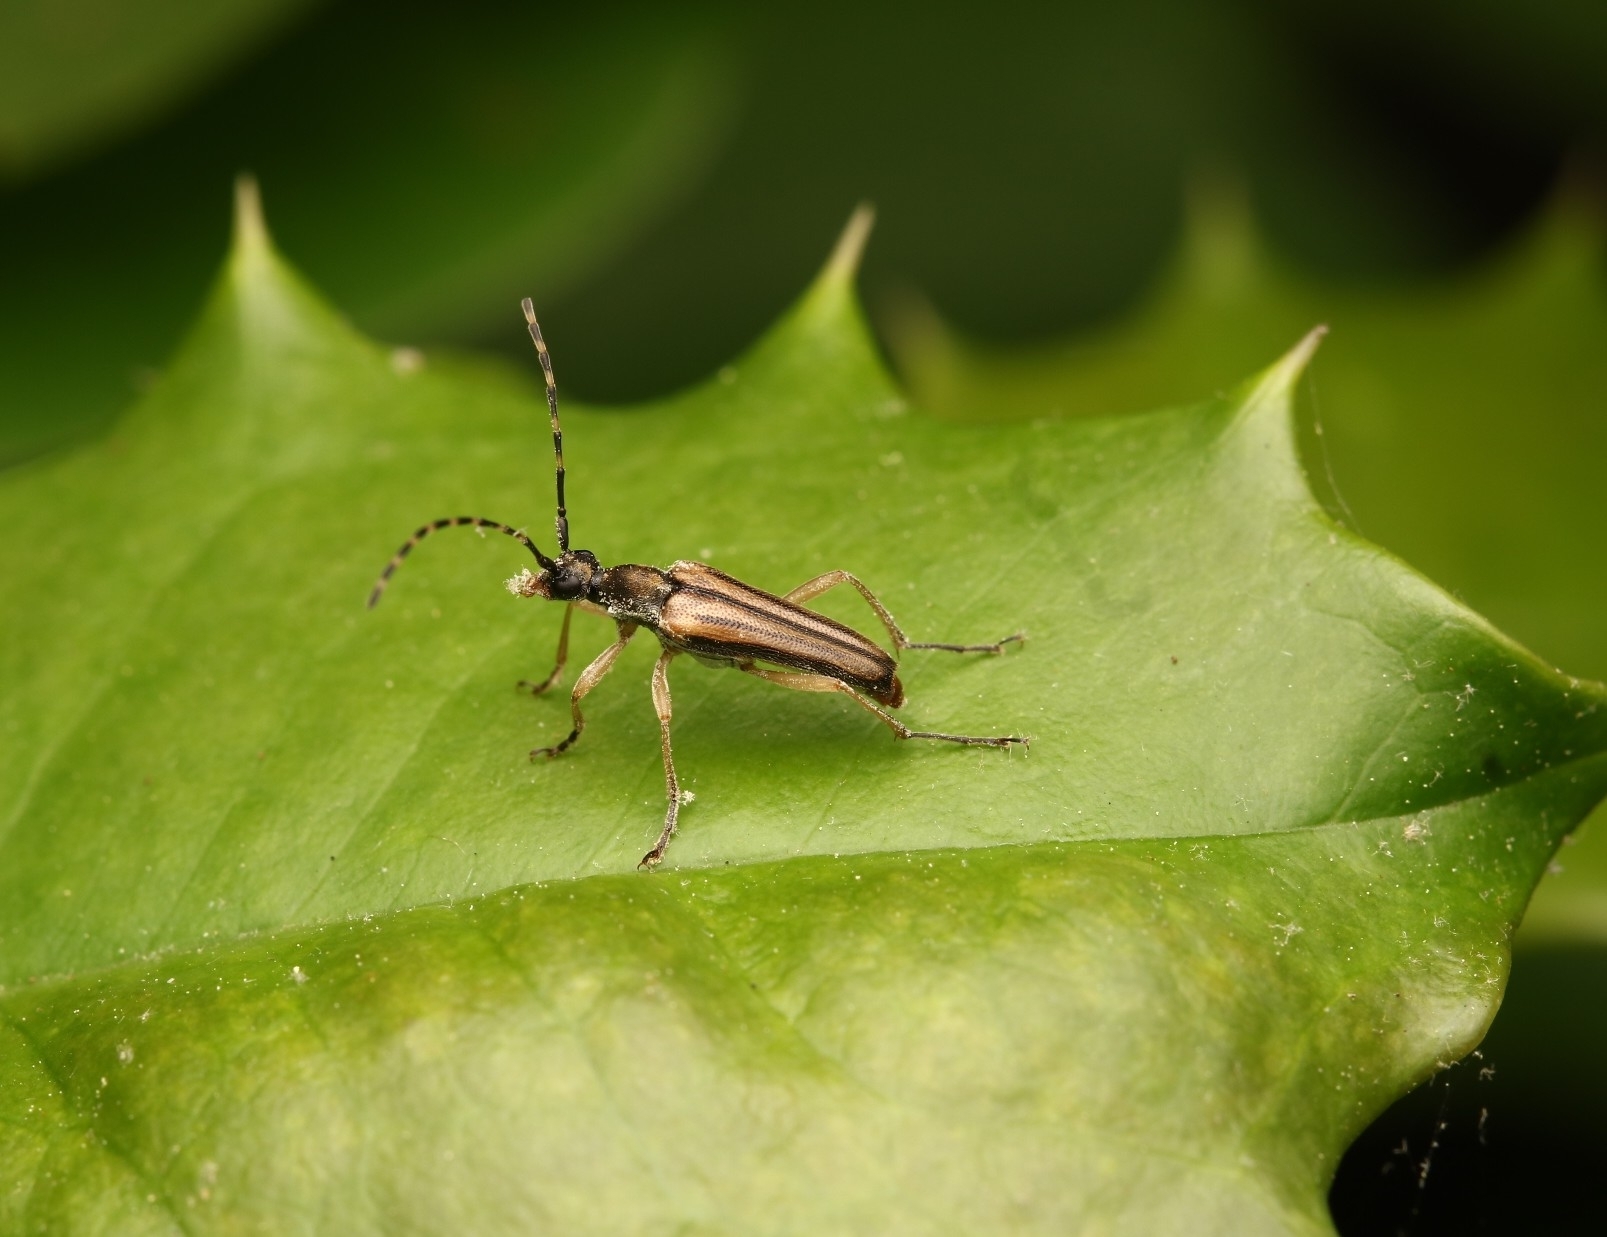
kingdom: Animalia
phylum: Arthropoda
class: Insecta
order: Coleoptera
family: Cerambycidae
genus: Analeptura
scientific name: Analeptura lineola
